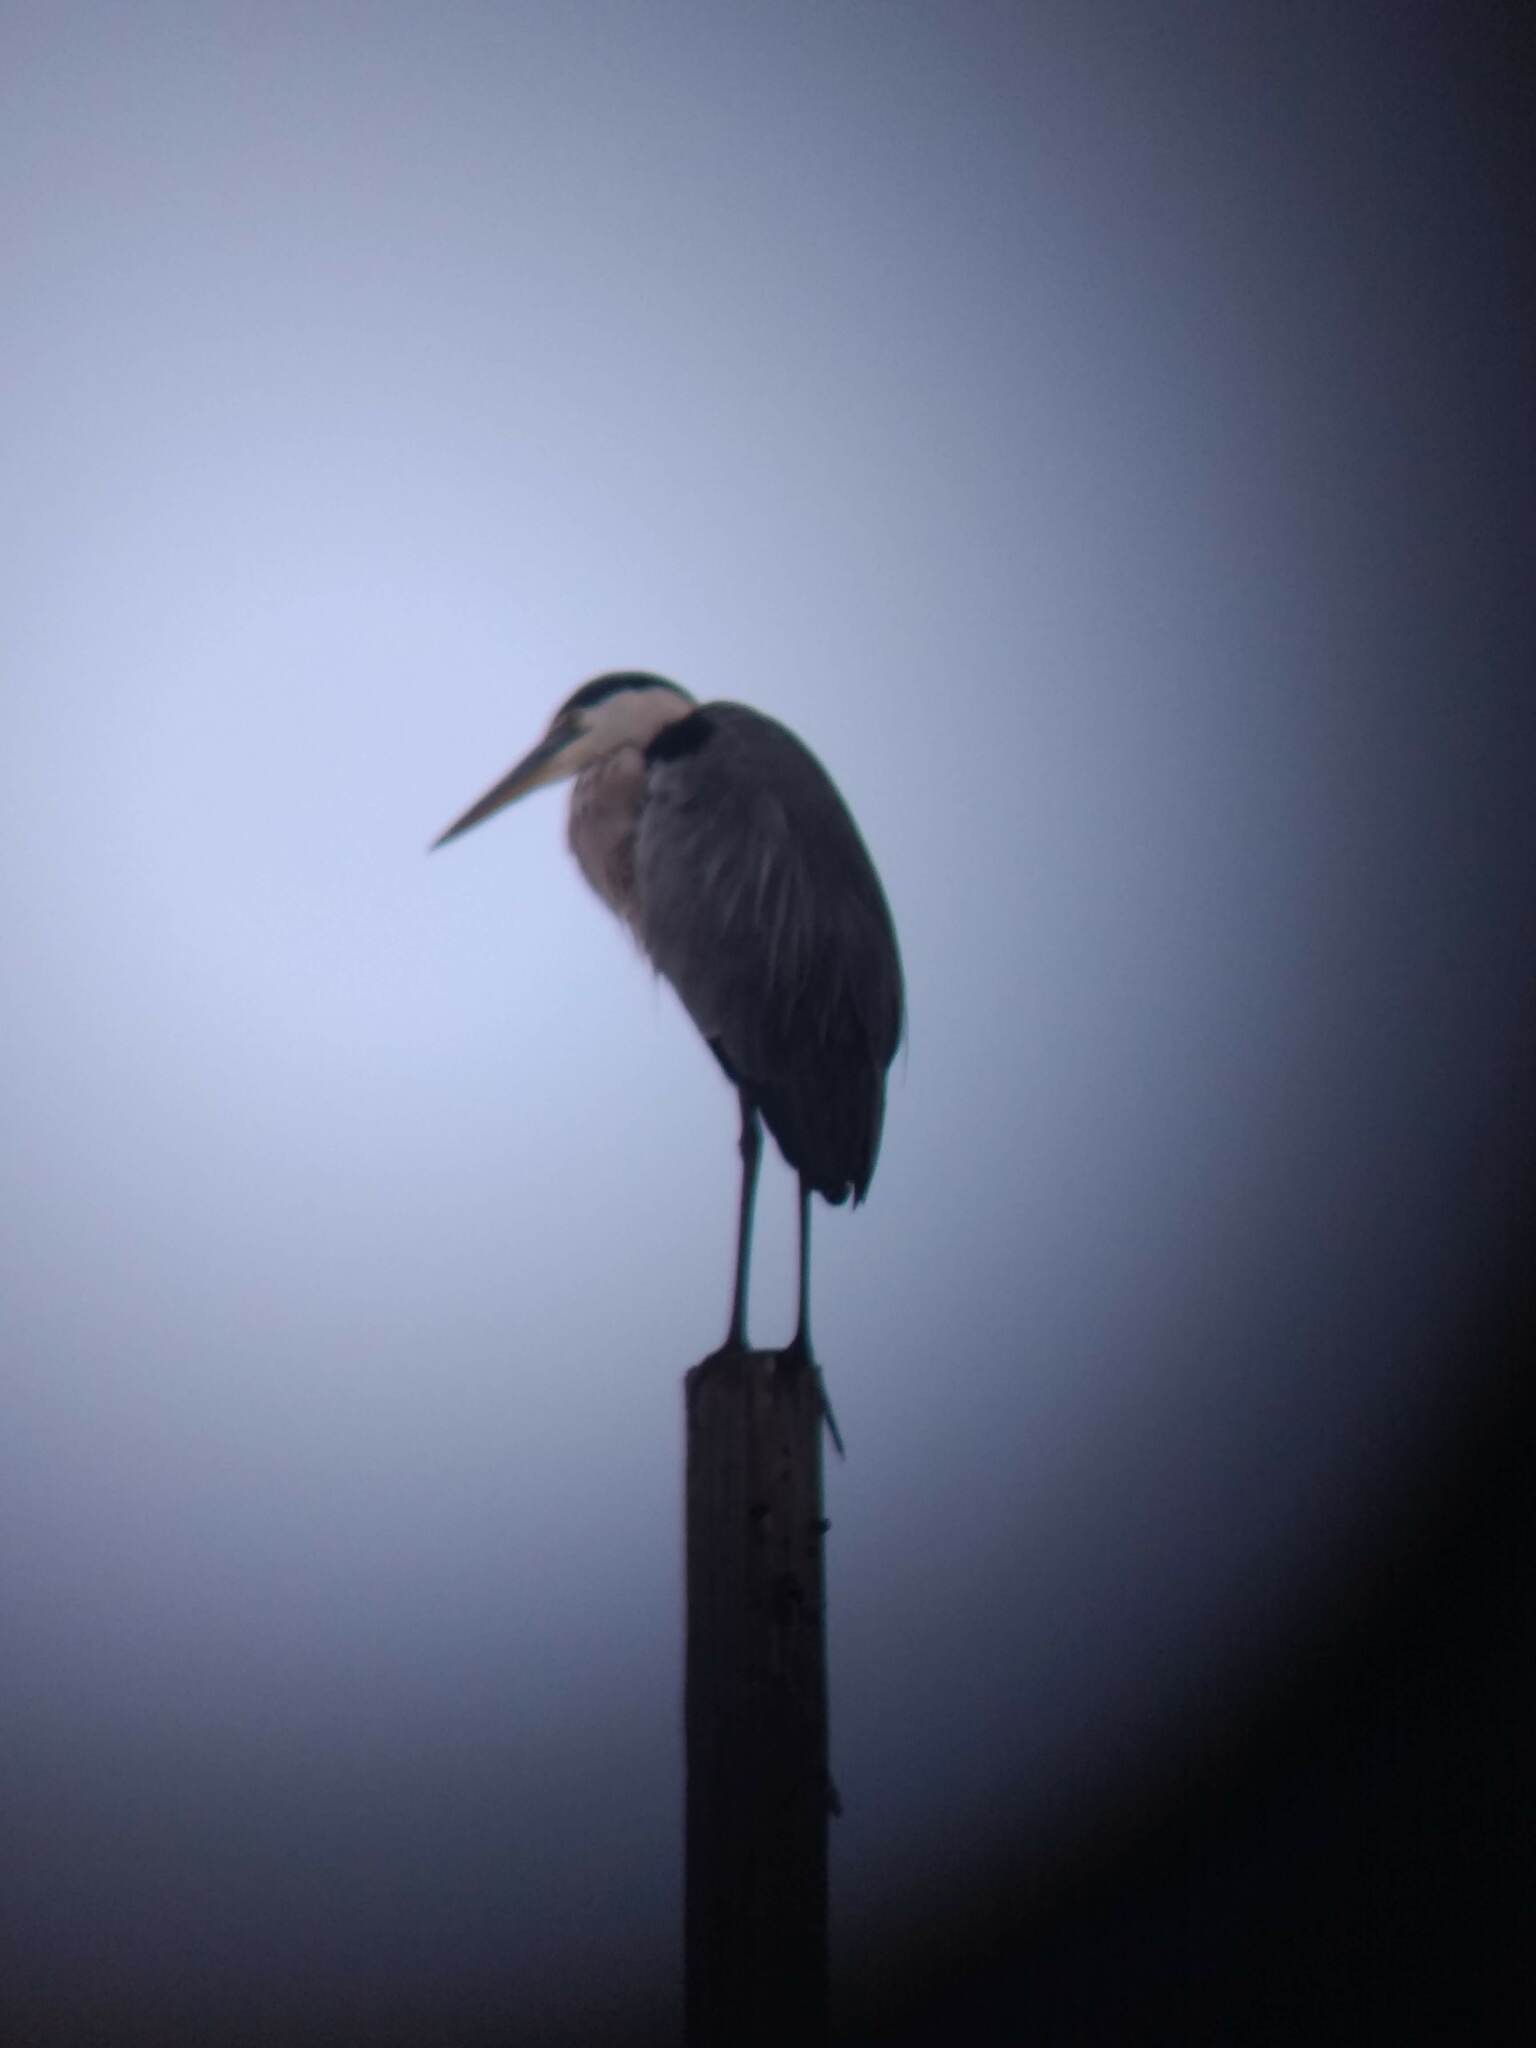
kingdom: Animalia
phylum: Chordata
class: Aves
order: Pelecaniformes
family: Ardeidae
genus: Ardea
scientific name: Ardea herodias
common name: Great blue heron
